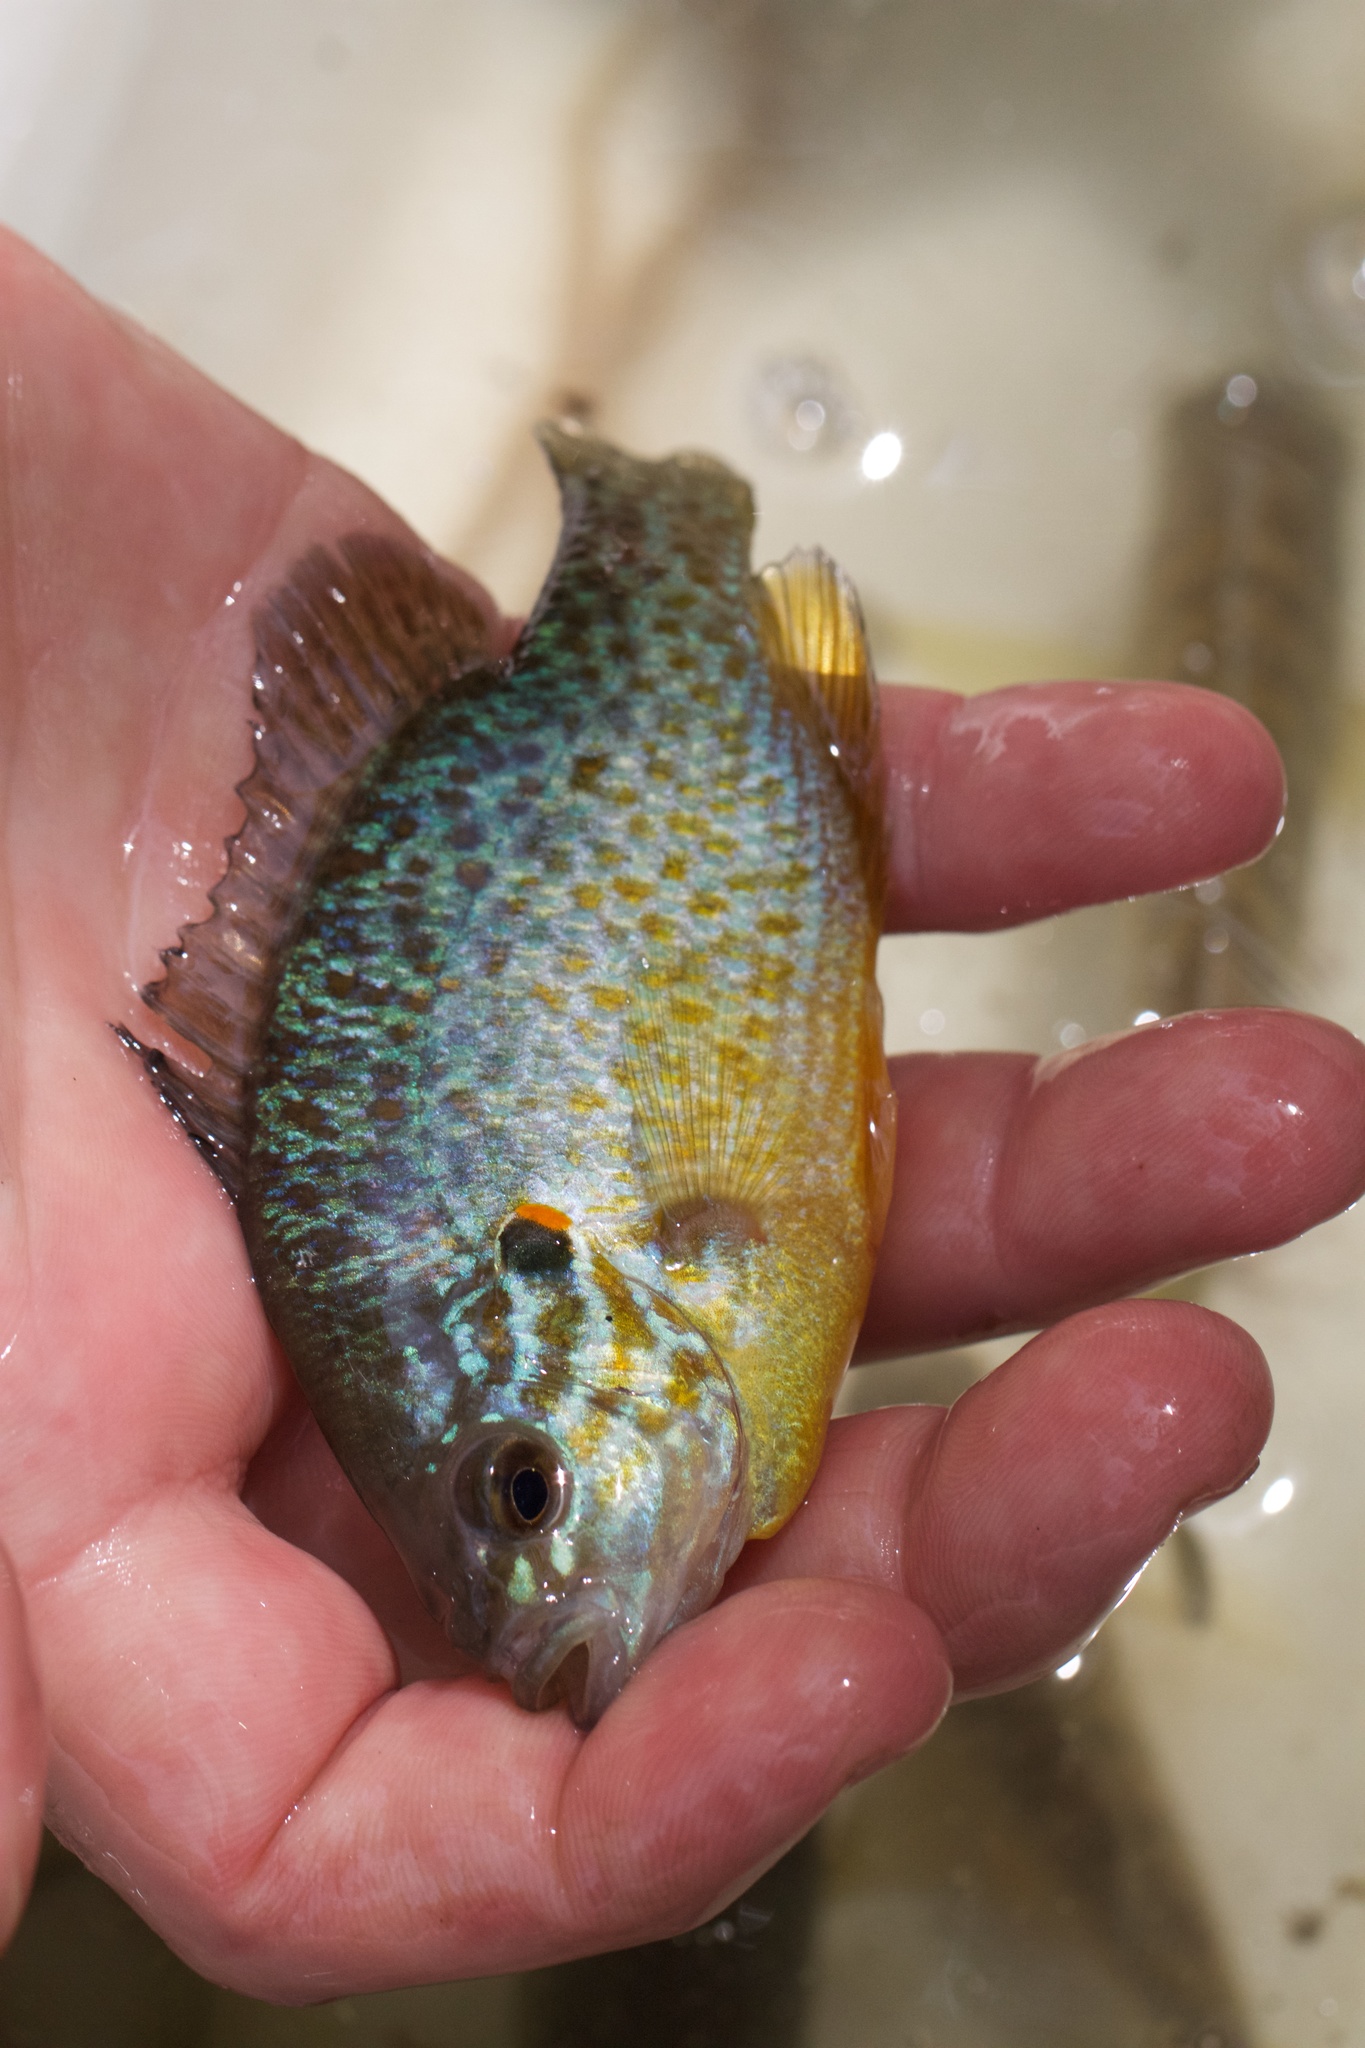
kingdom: Animalia
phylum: Chordata
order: Perciformes
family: Centrarchidae
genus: Lepomis
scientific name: Lepomis gibbosus
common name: Pumpkinseed
